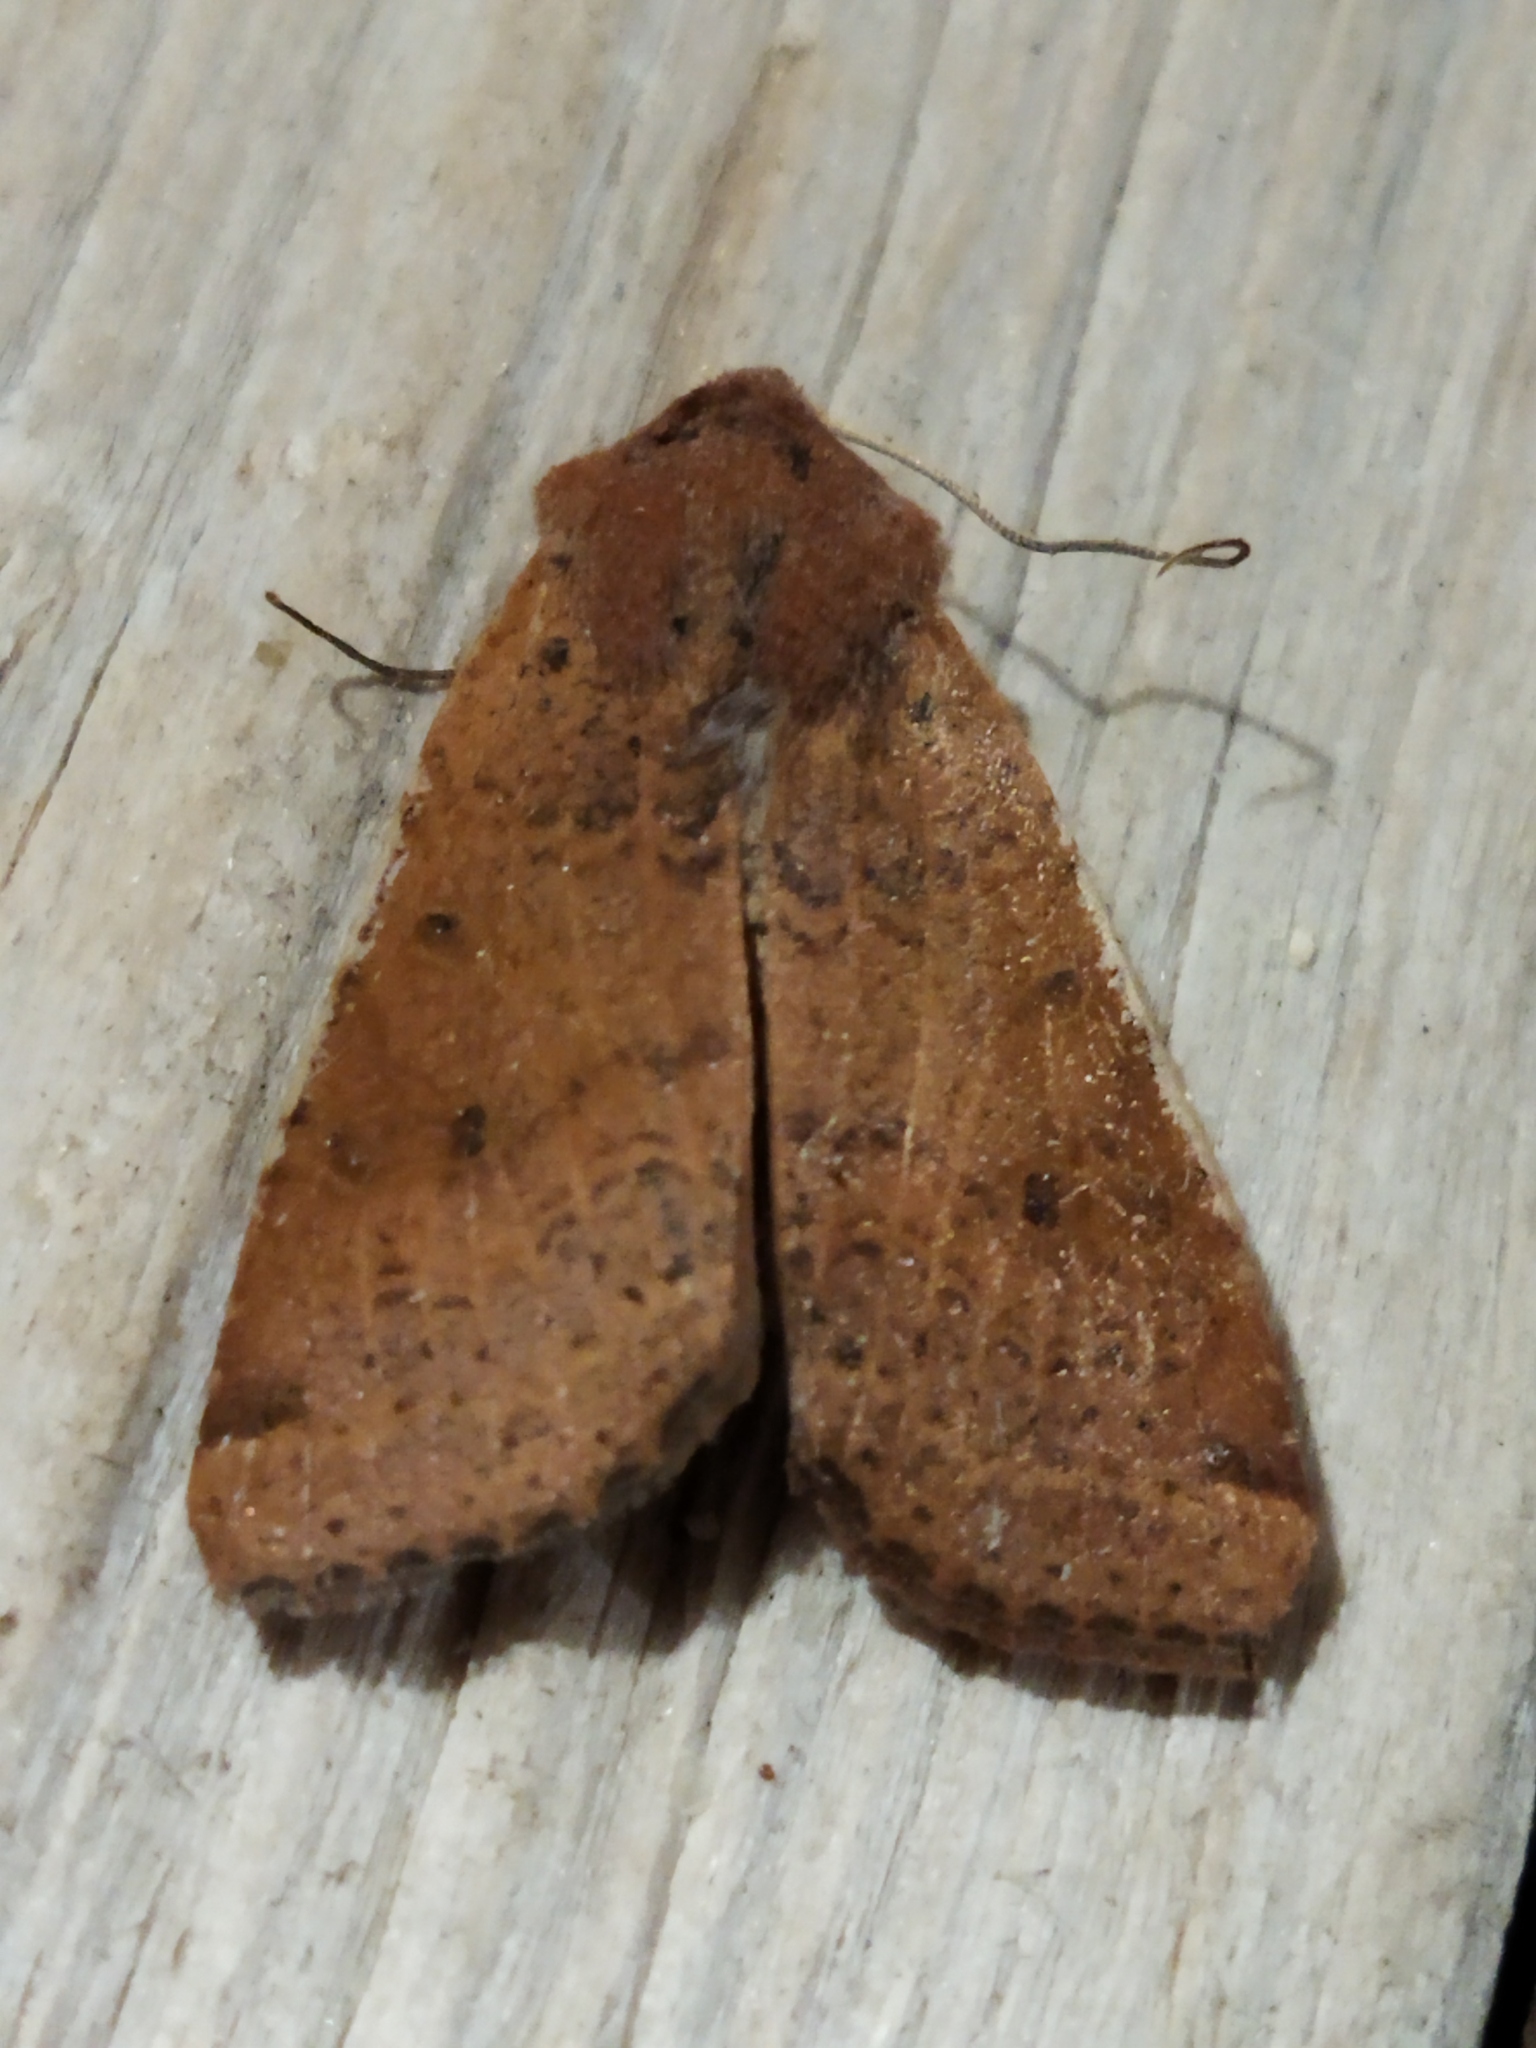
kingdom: Animalia
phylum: Arthropoda
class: Insecta
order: Lepidoptera
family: Noctuidae
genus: Agrochola
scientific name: Agrochola lychnidis
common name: Beaded chestnut
